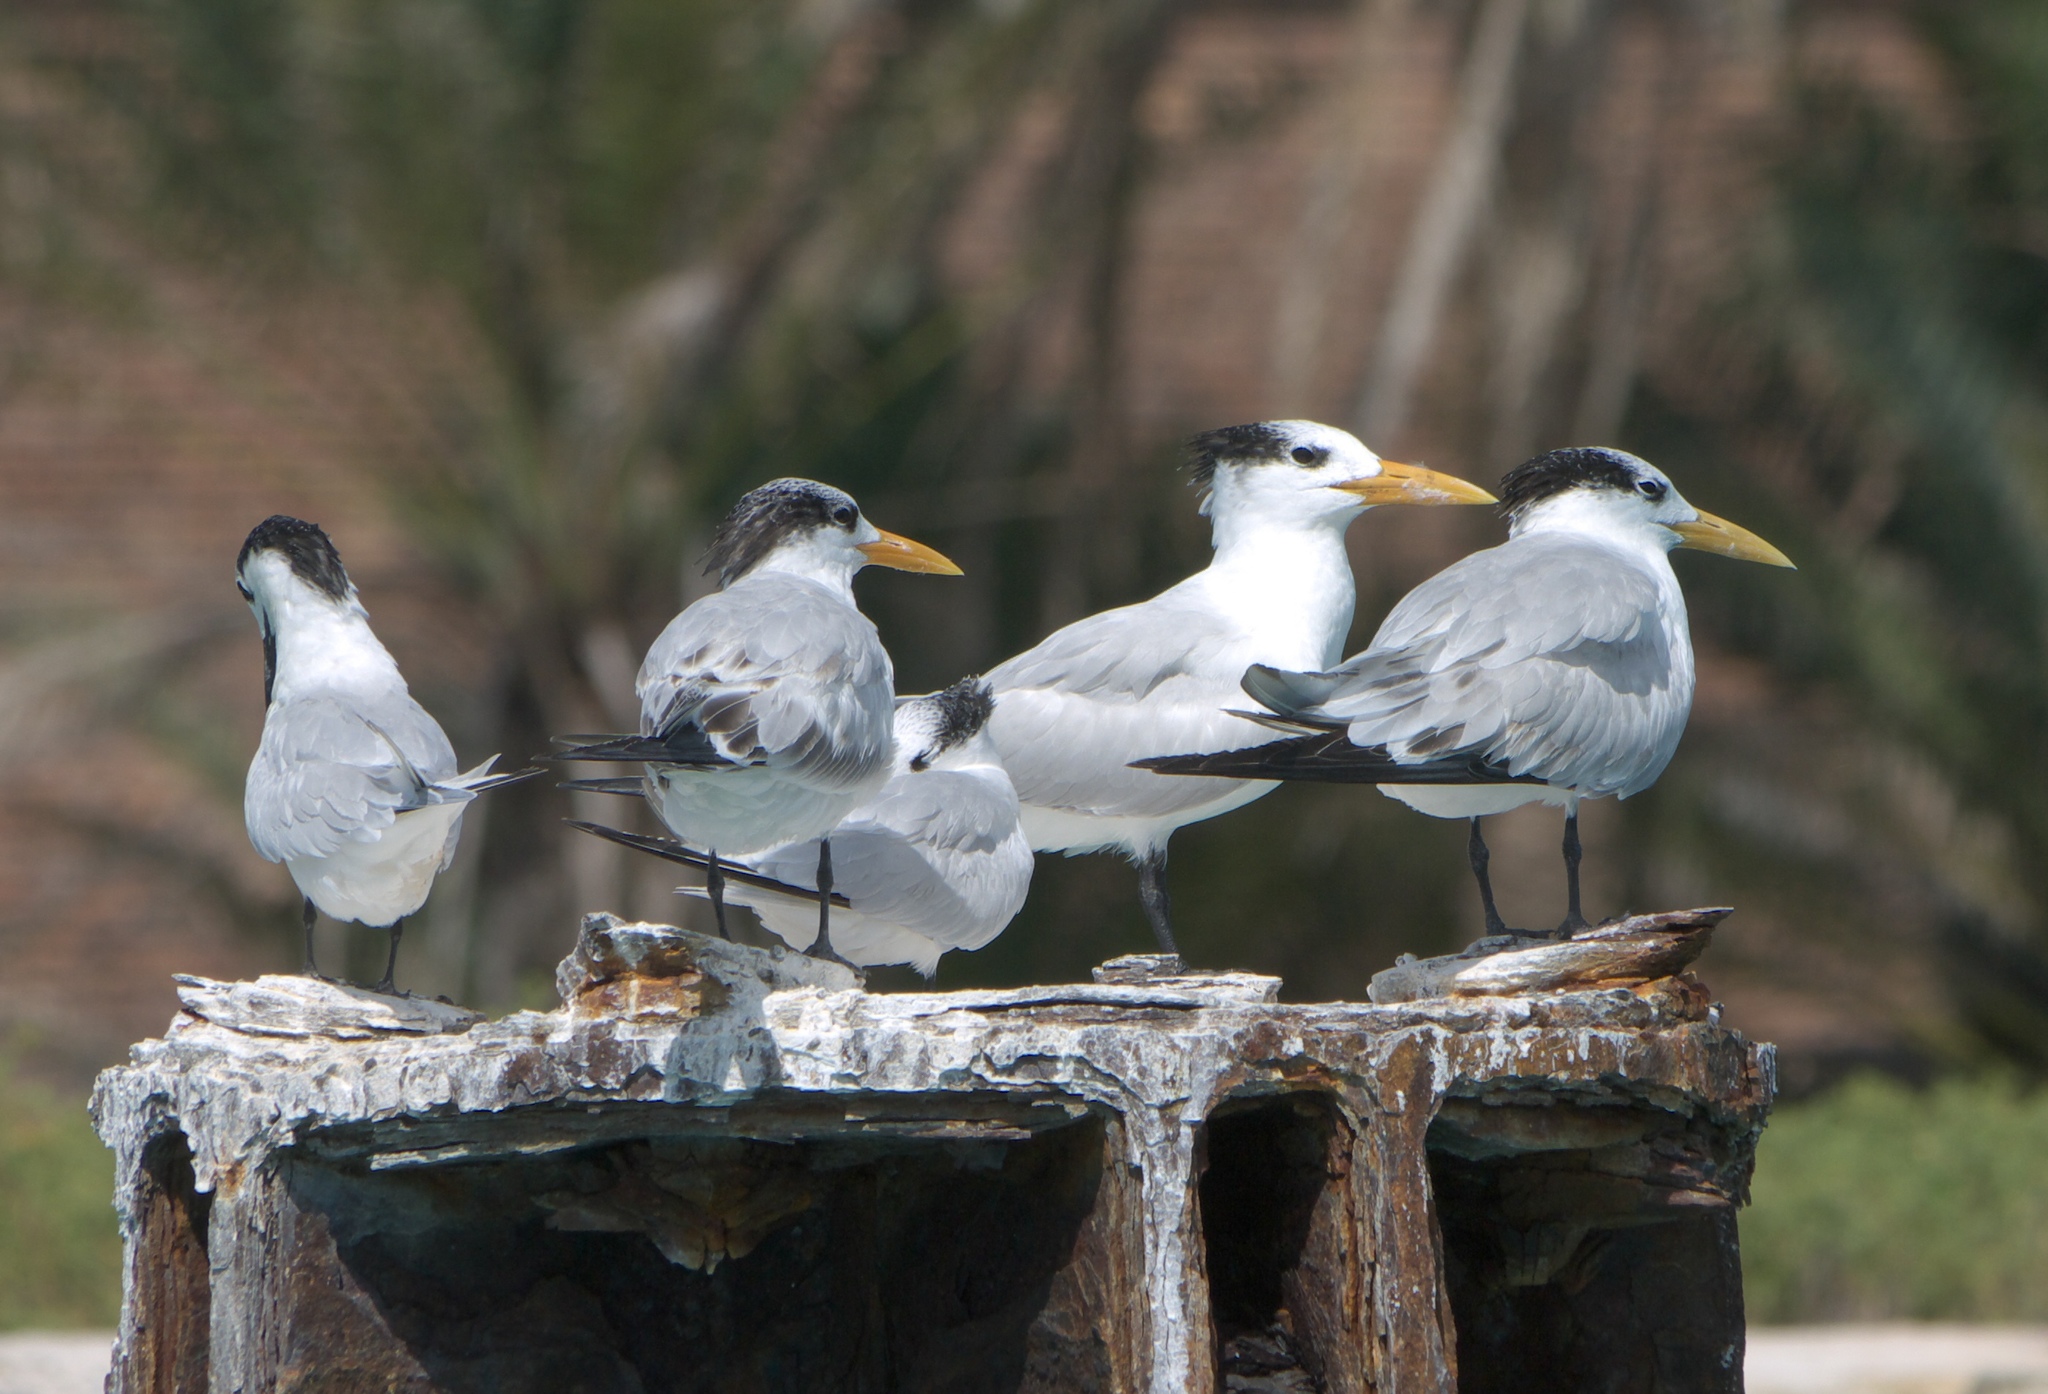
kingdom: Animalia
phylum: Chordata
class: Aves
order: Charadriiformes
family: Laridae
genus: Thalasseus
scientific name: Thalasseus maximus
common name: Royal tern
